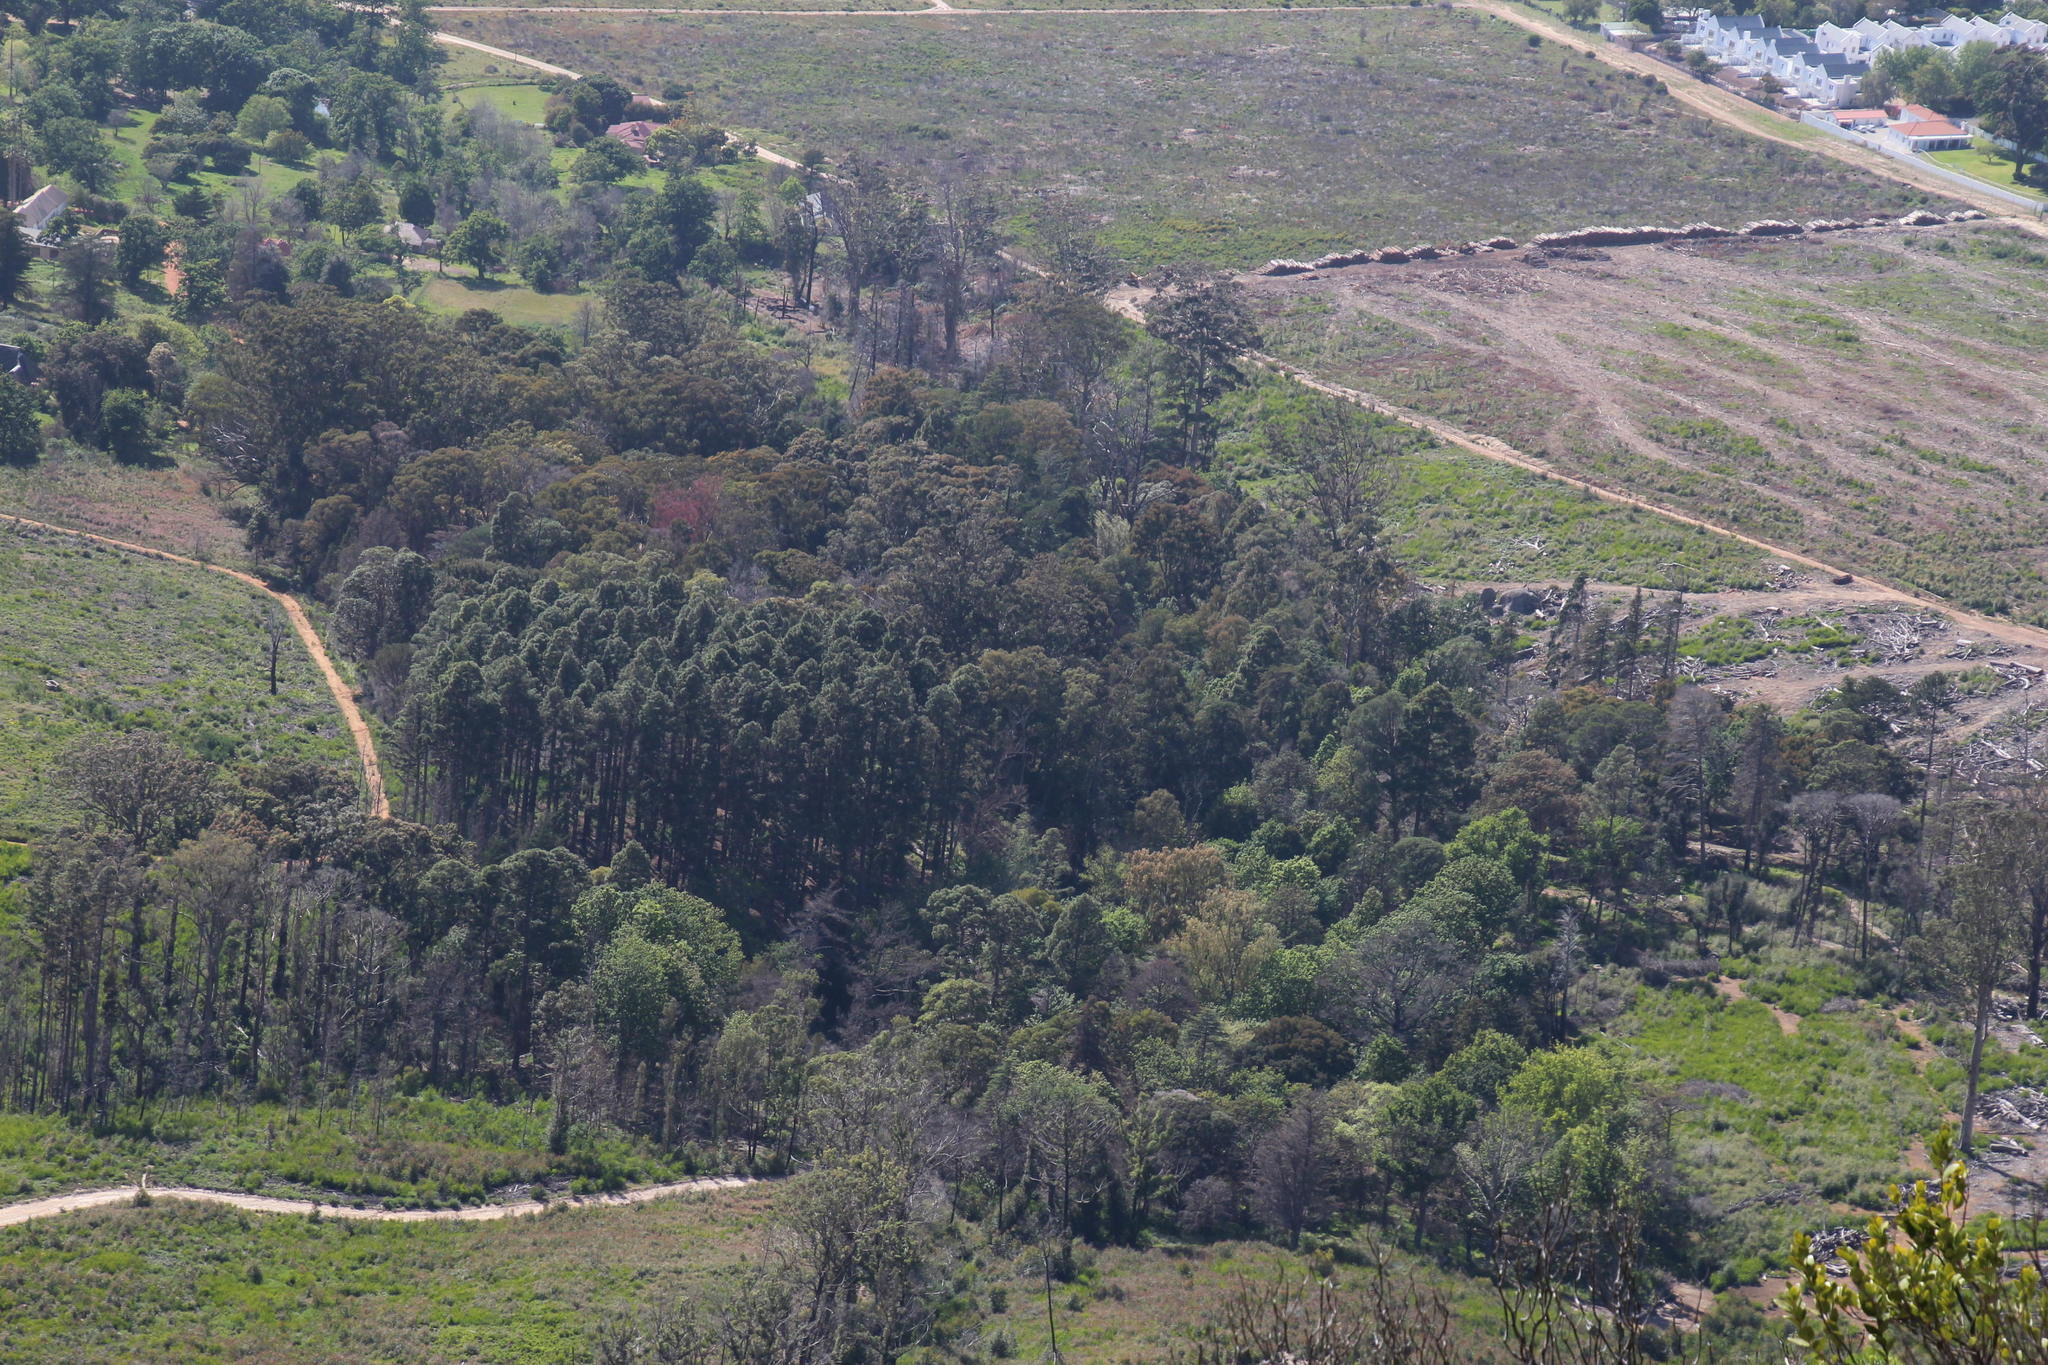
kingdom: Plantae
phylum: Tracheophyta
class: Pinopsida
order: Pinales
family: Pinaceae
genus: Pinus
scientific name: Pinus canariensis
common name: Canary islands pine
